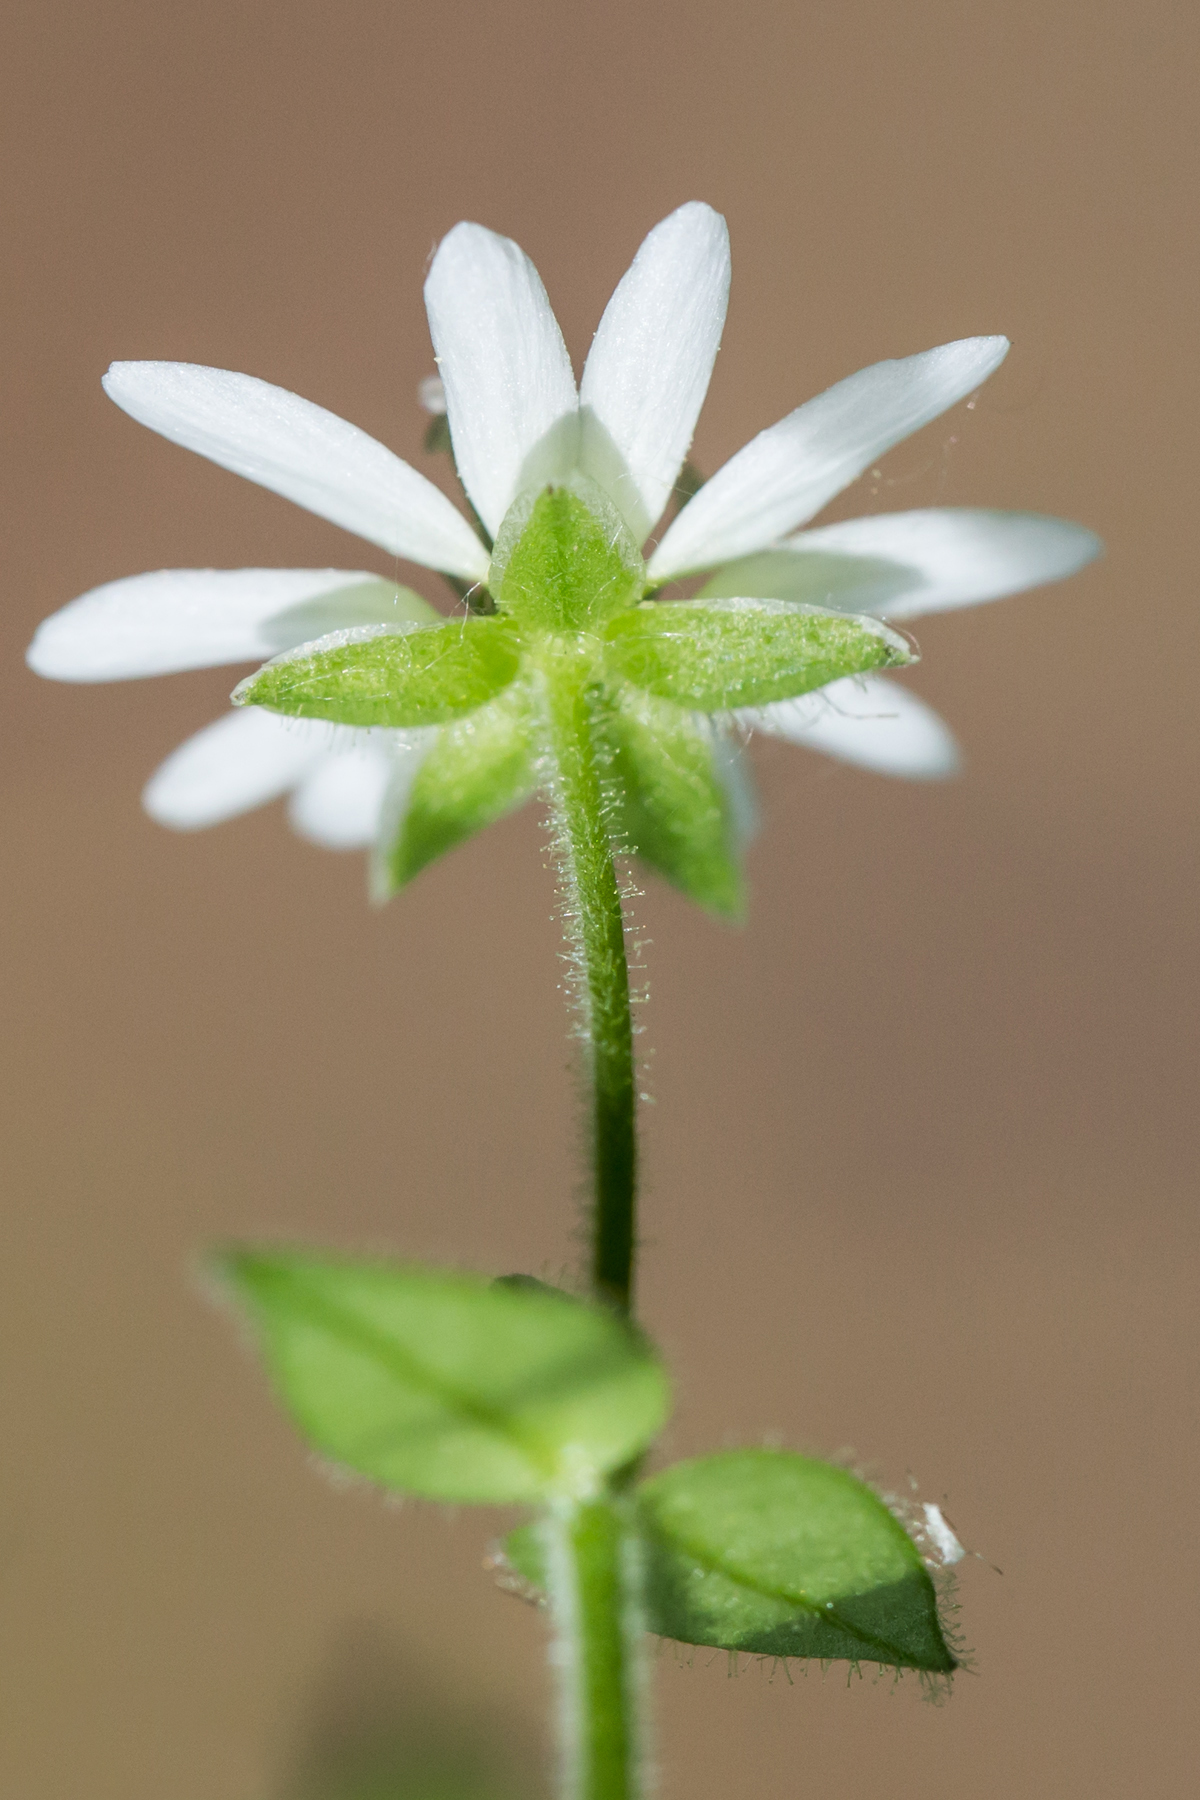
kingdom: Plantae
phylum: Tracheophyta
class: Magnoliopsida
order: Caryophyllales
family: Caryophyllaceae
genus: Stellaria
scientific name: Stellaria aquatica
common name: Water chickweed
